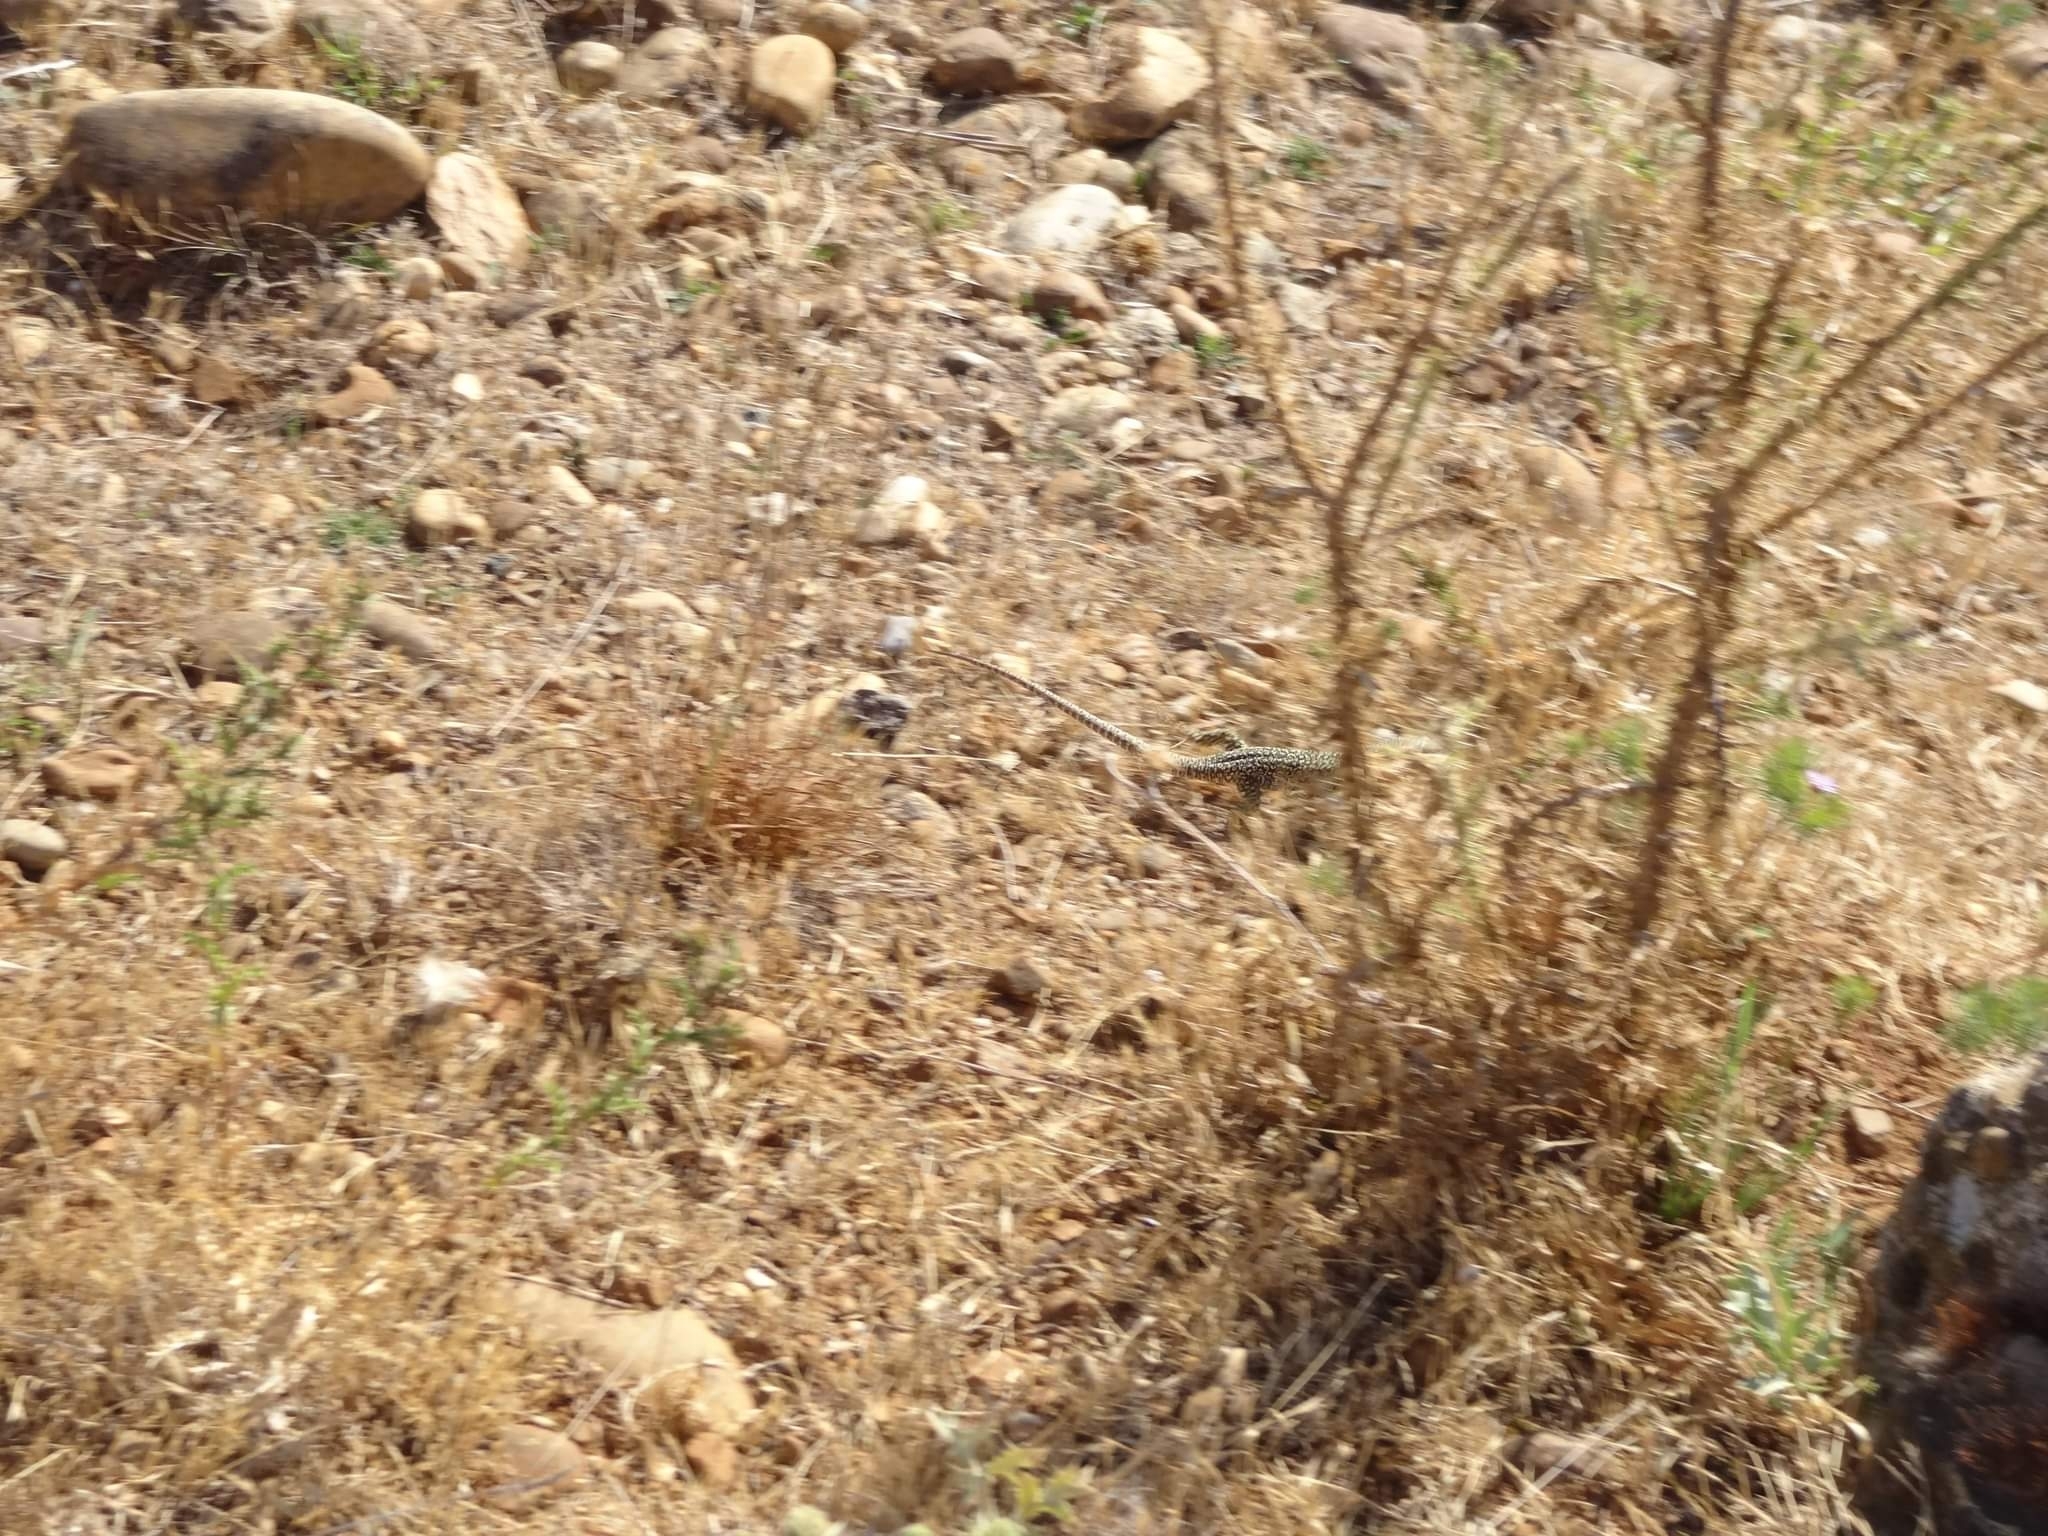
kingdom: Animalia
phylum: Chordata
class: Squamata
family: Lacertidae
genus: Timon
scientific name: Timon lepidus
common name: Ocellated lizard
